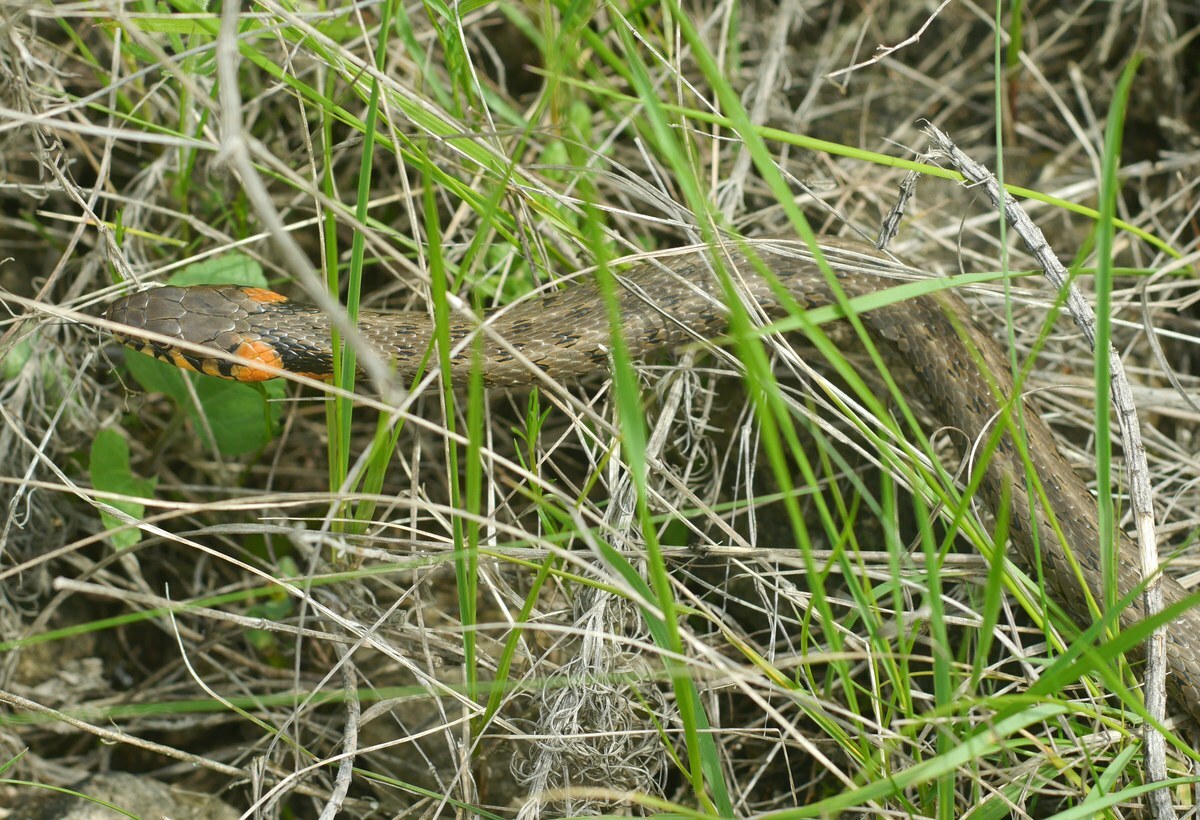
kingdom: Animalia
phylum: Chordata
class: Squamata
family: Colubridae
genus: Natrix
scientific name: Natrix natrix
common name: Grass snake
